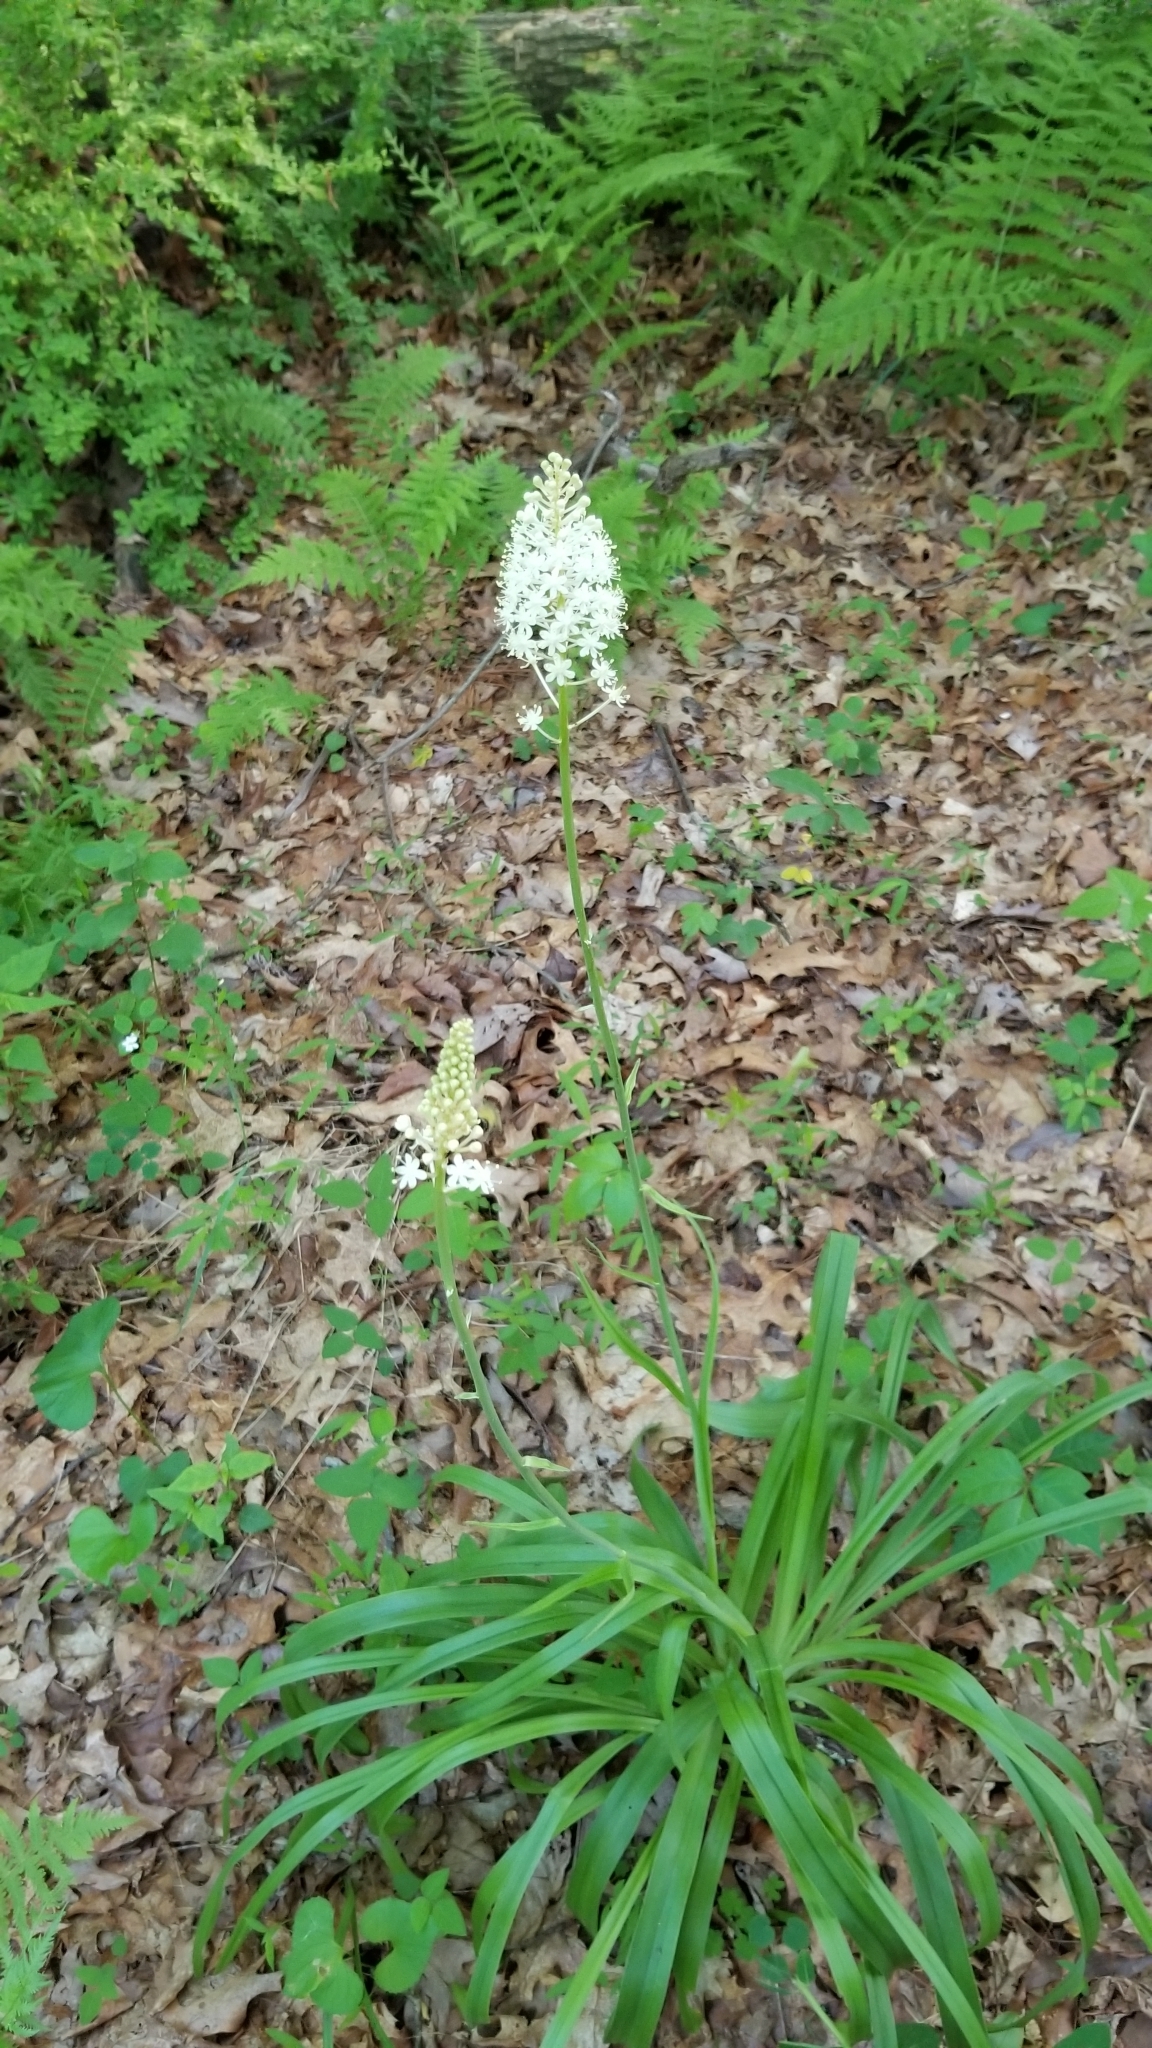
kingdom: Plantae
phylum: Tracheophyta
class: Liliopsida
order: Liliales
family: Melanthiaceae
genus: Amianthium
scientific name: Amianthium muscitoxicum
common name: Fly-poison
